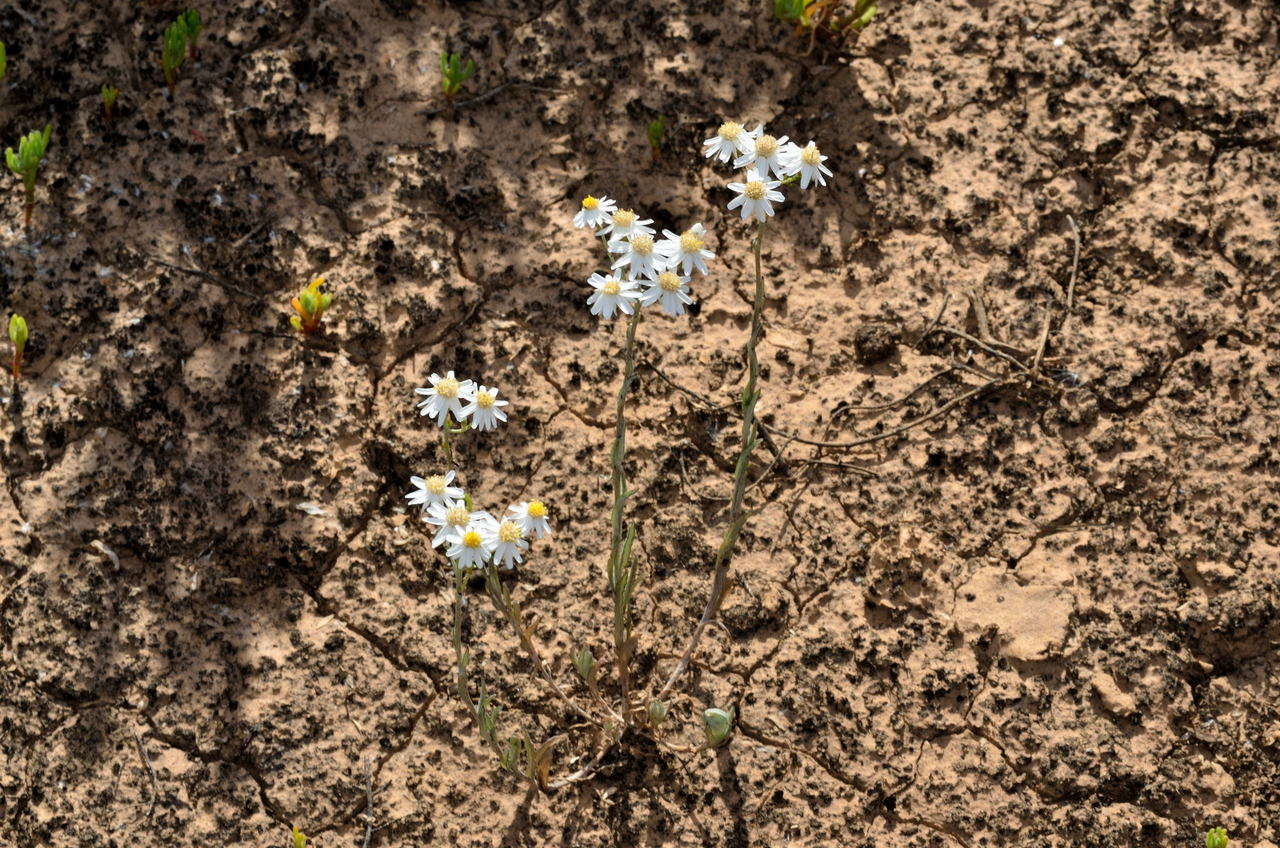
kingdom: Plantae
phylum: Tracheophyta
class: Magnoliopsida
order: Asterales
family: Asteraceae
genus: Rhodanthe
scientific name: Rhodanthe corymbiflora
